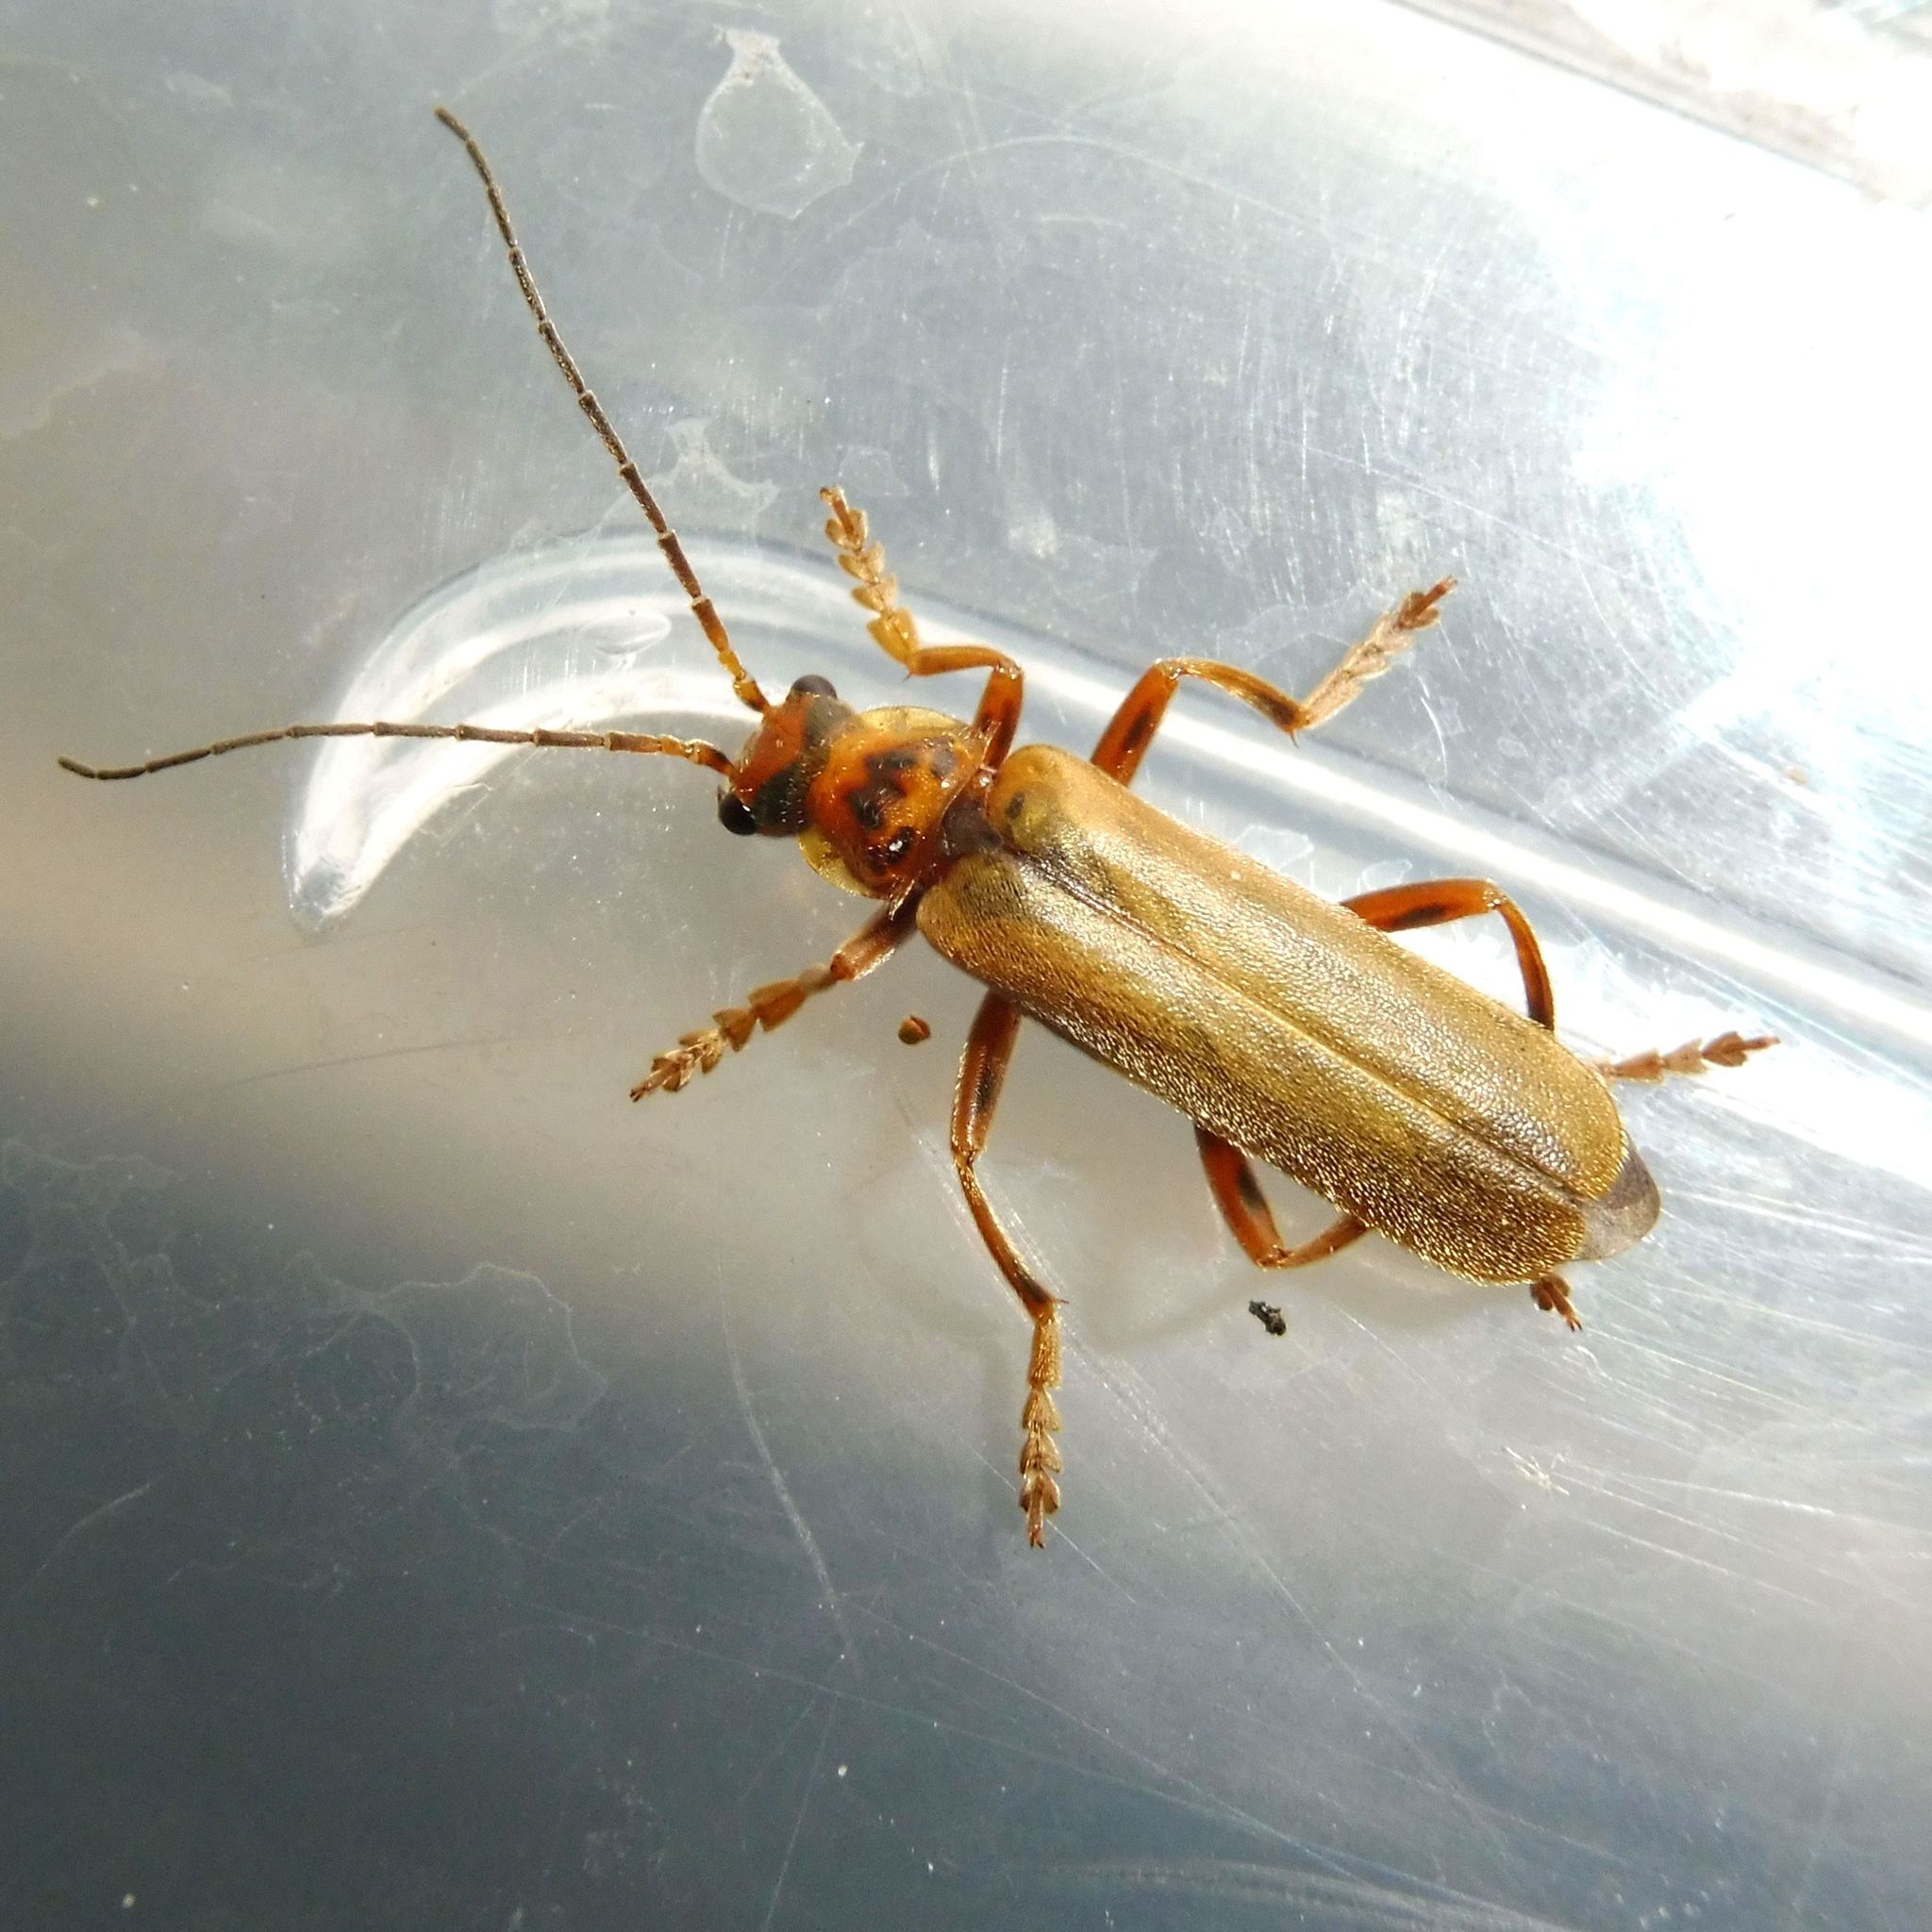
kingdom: Animalia
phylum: Arthropoda
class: Insecta
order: Coleoptera
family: Cantharidae
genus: Cantharis
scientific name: Cantharis rufa
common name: Red-spotted soldier beetle
